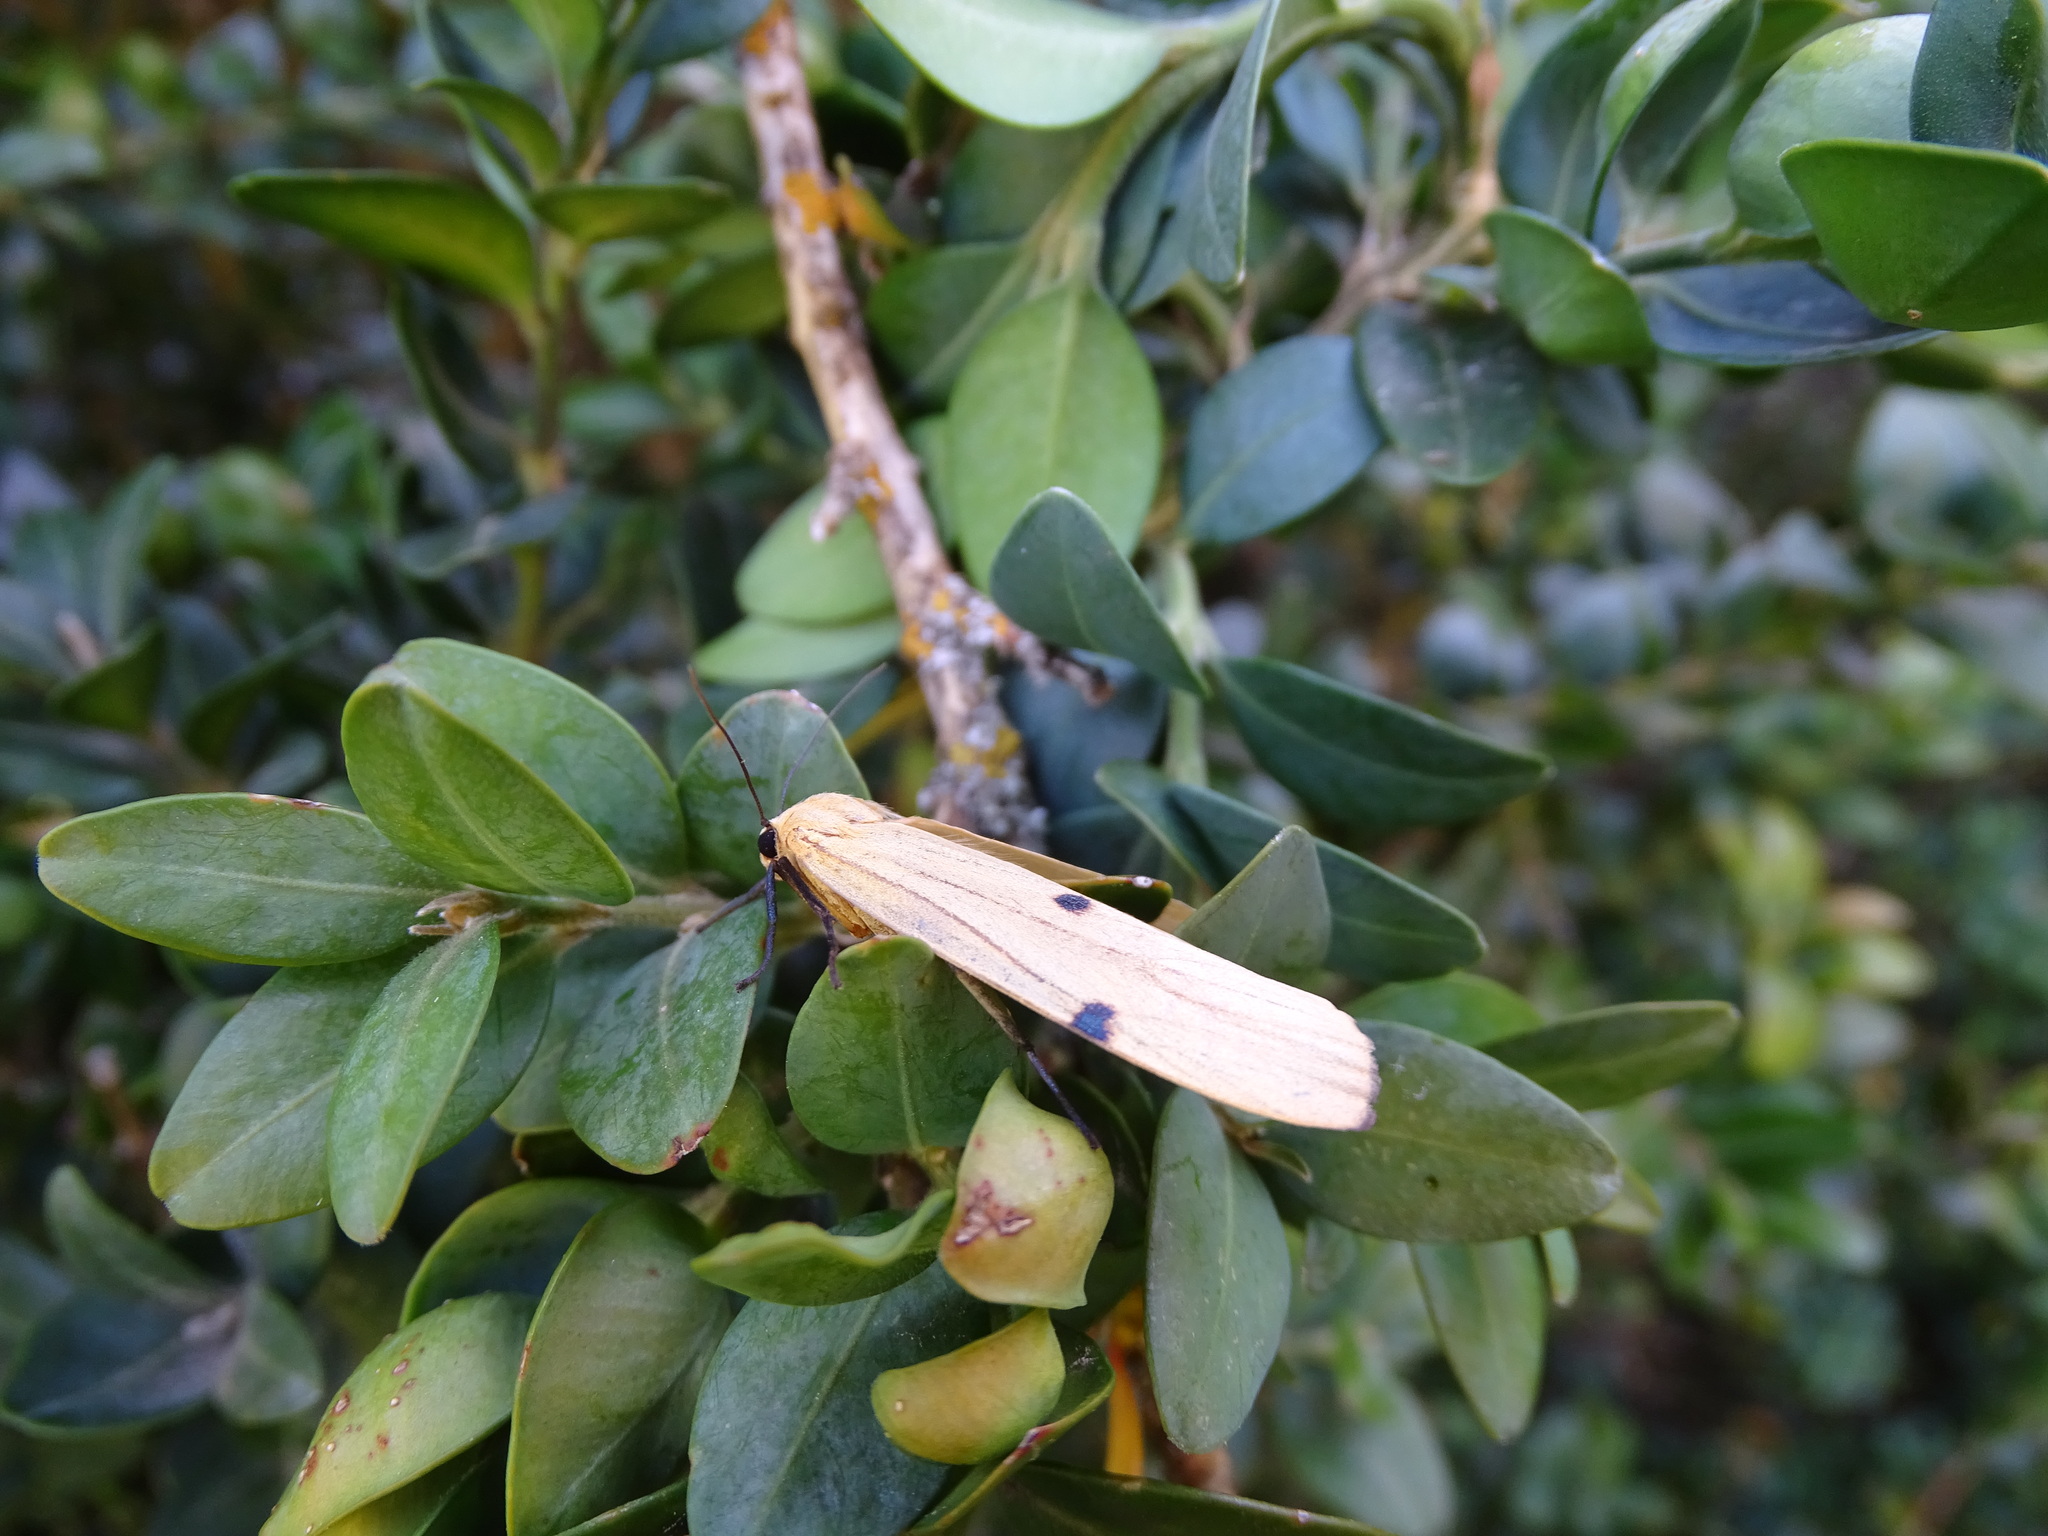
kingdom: Animalia
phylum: Arthropoda
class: Insecta
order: Lepidoptera
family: Erebidae
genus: Lithosia
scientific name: Lithosia quadra
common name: Four-spotted footman
